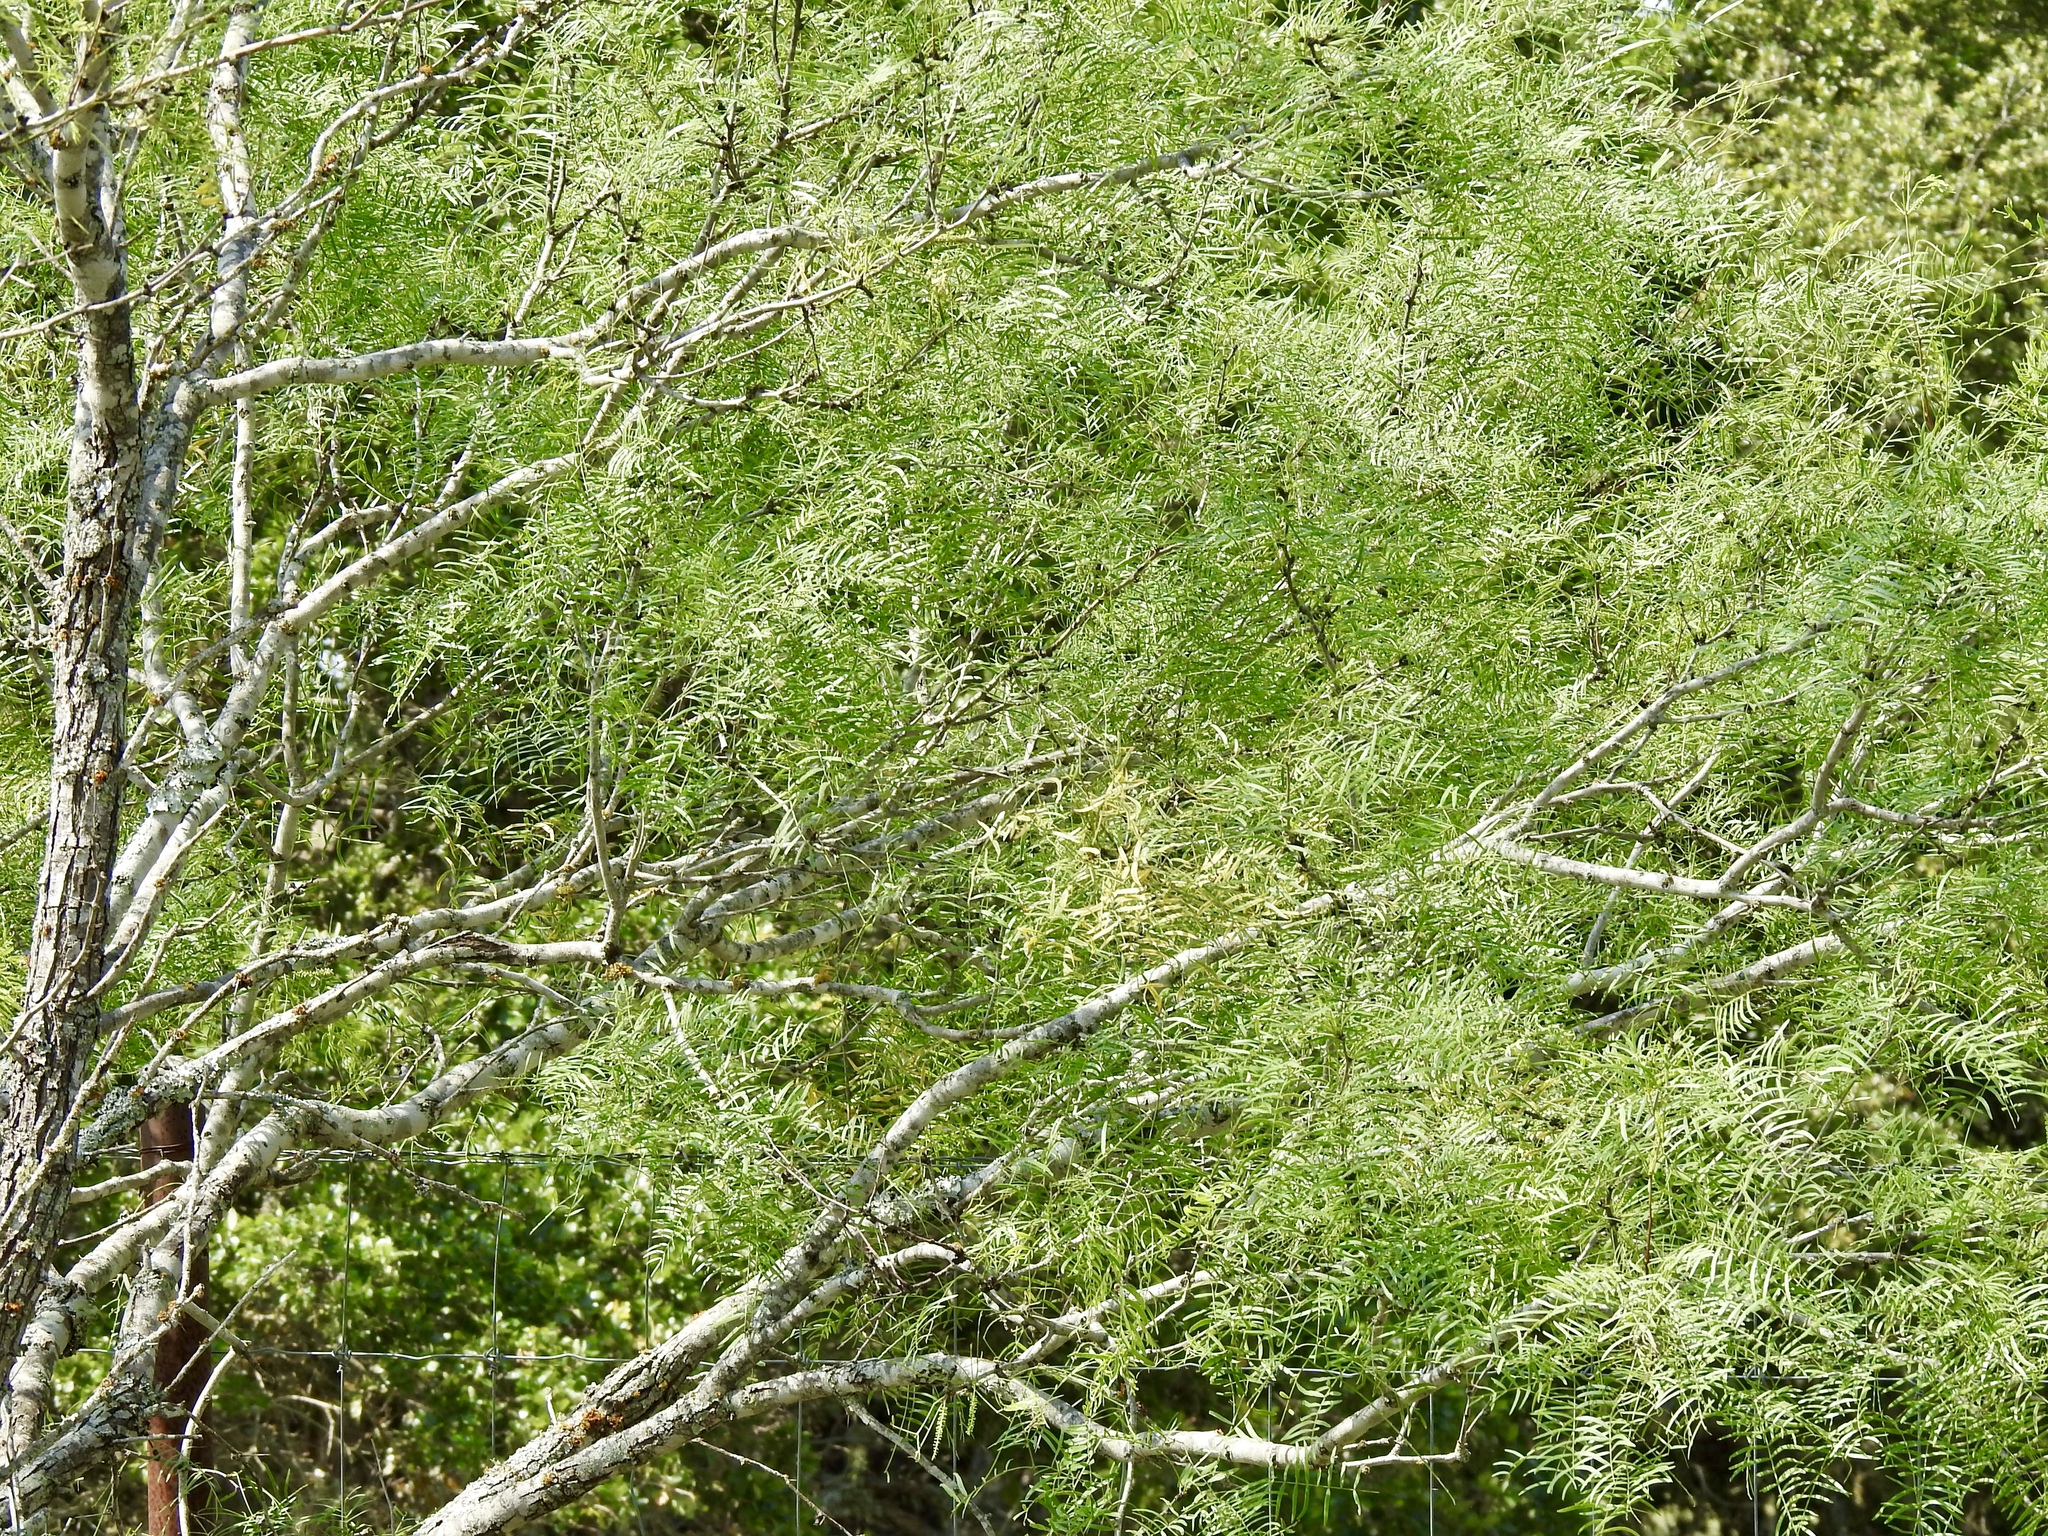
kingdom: Plantae
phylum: Tracheophyta
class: Magnoliopsida
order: Fabales
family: Fabaceae
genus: Prosopis
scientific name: Prosopis glandulosa
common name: Honey mesquite
